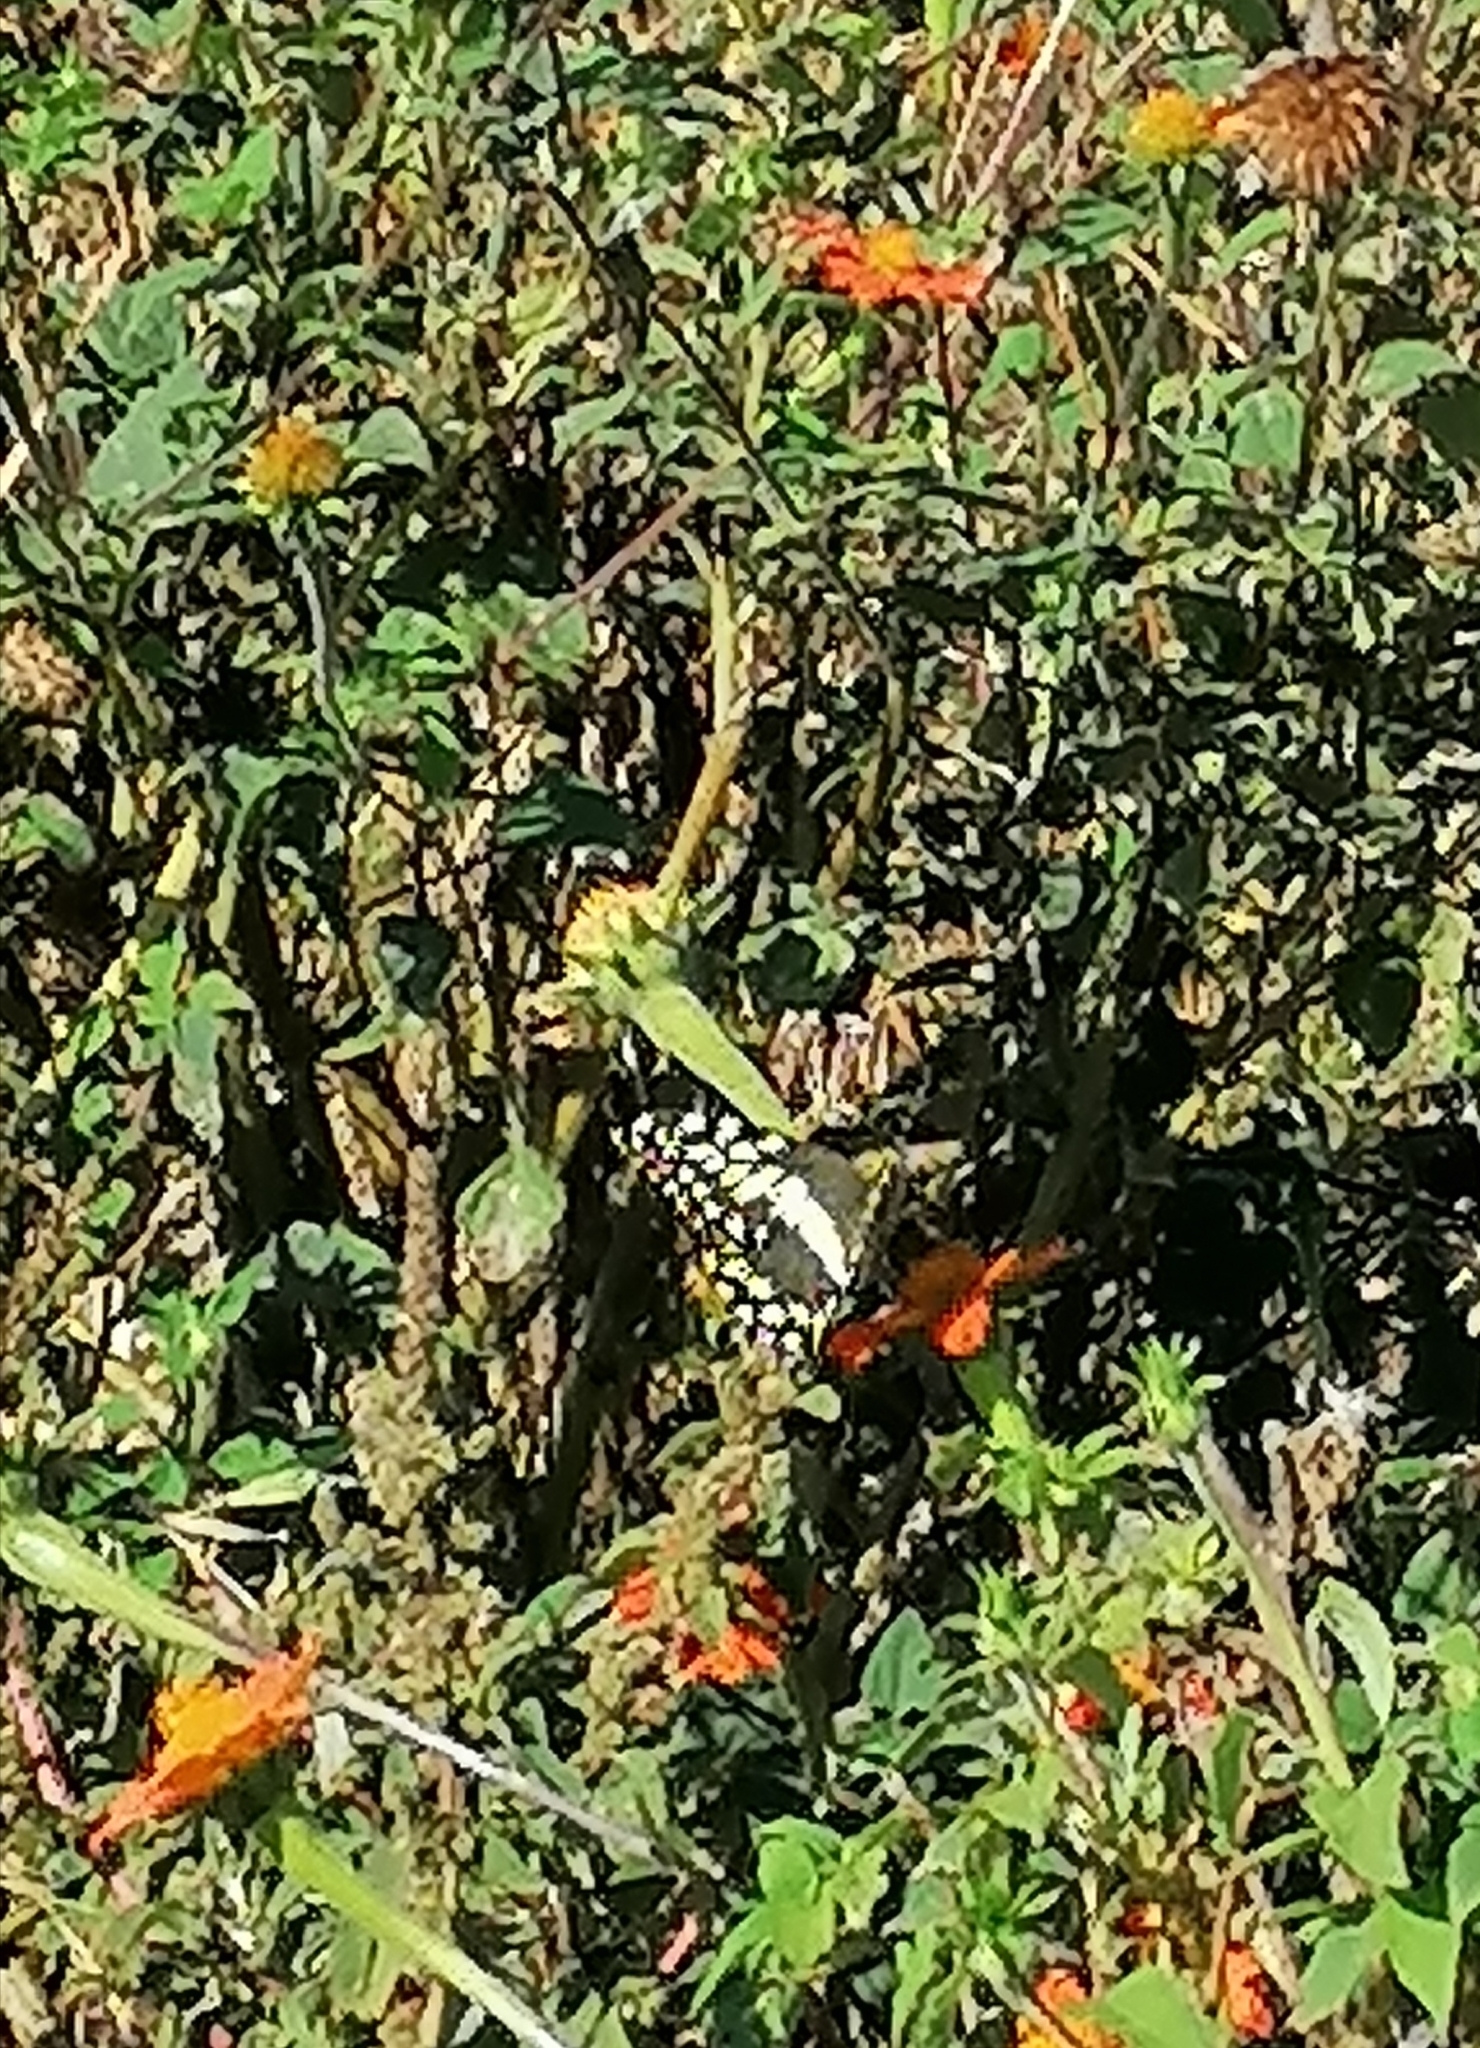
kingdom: Animalia
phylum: Arthropoda
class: Insecta
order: Lepidoptera
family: Papilionidae
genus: Papilio
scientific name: Papilio demodocus
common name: Christmas butterfly
